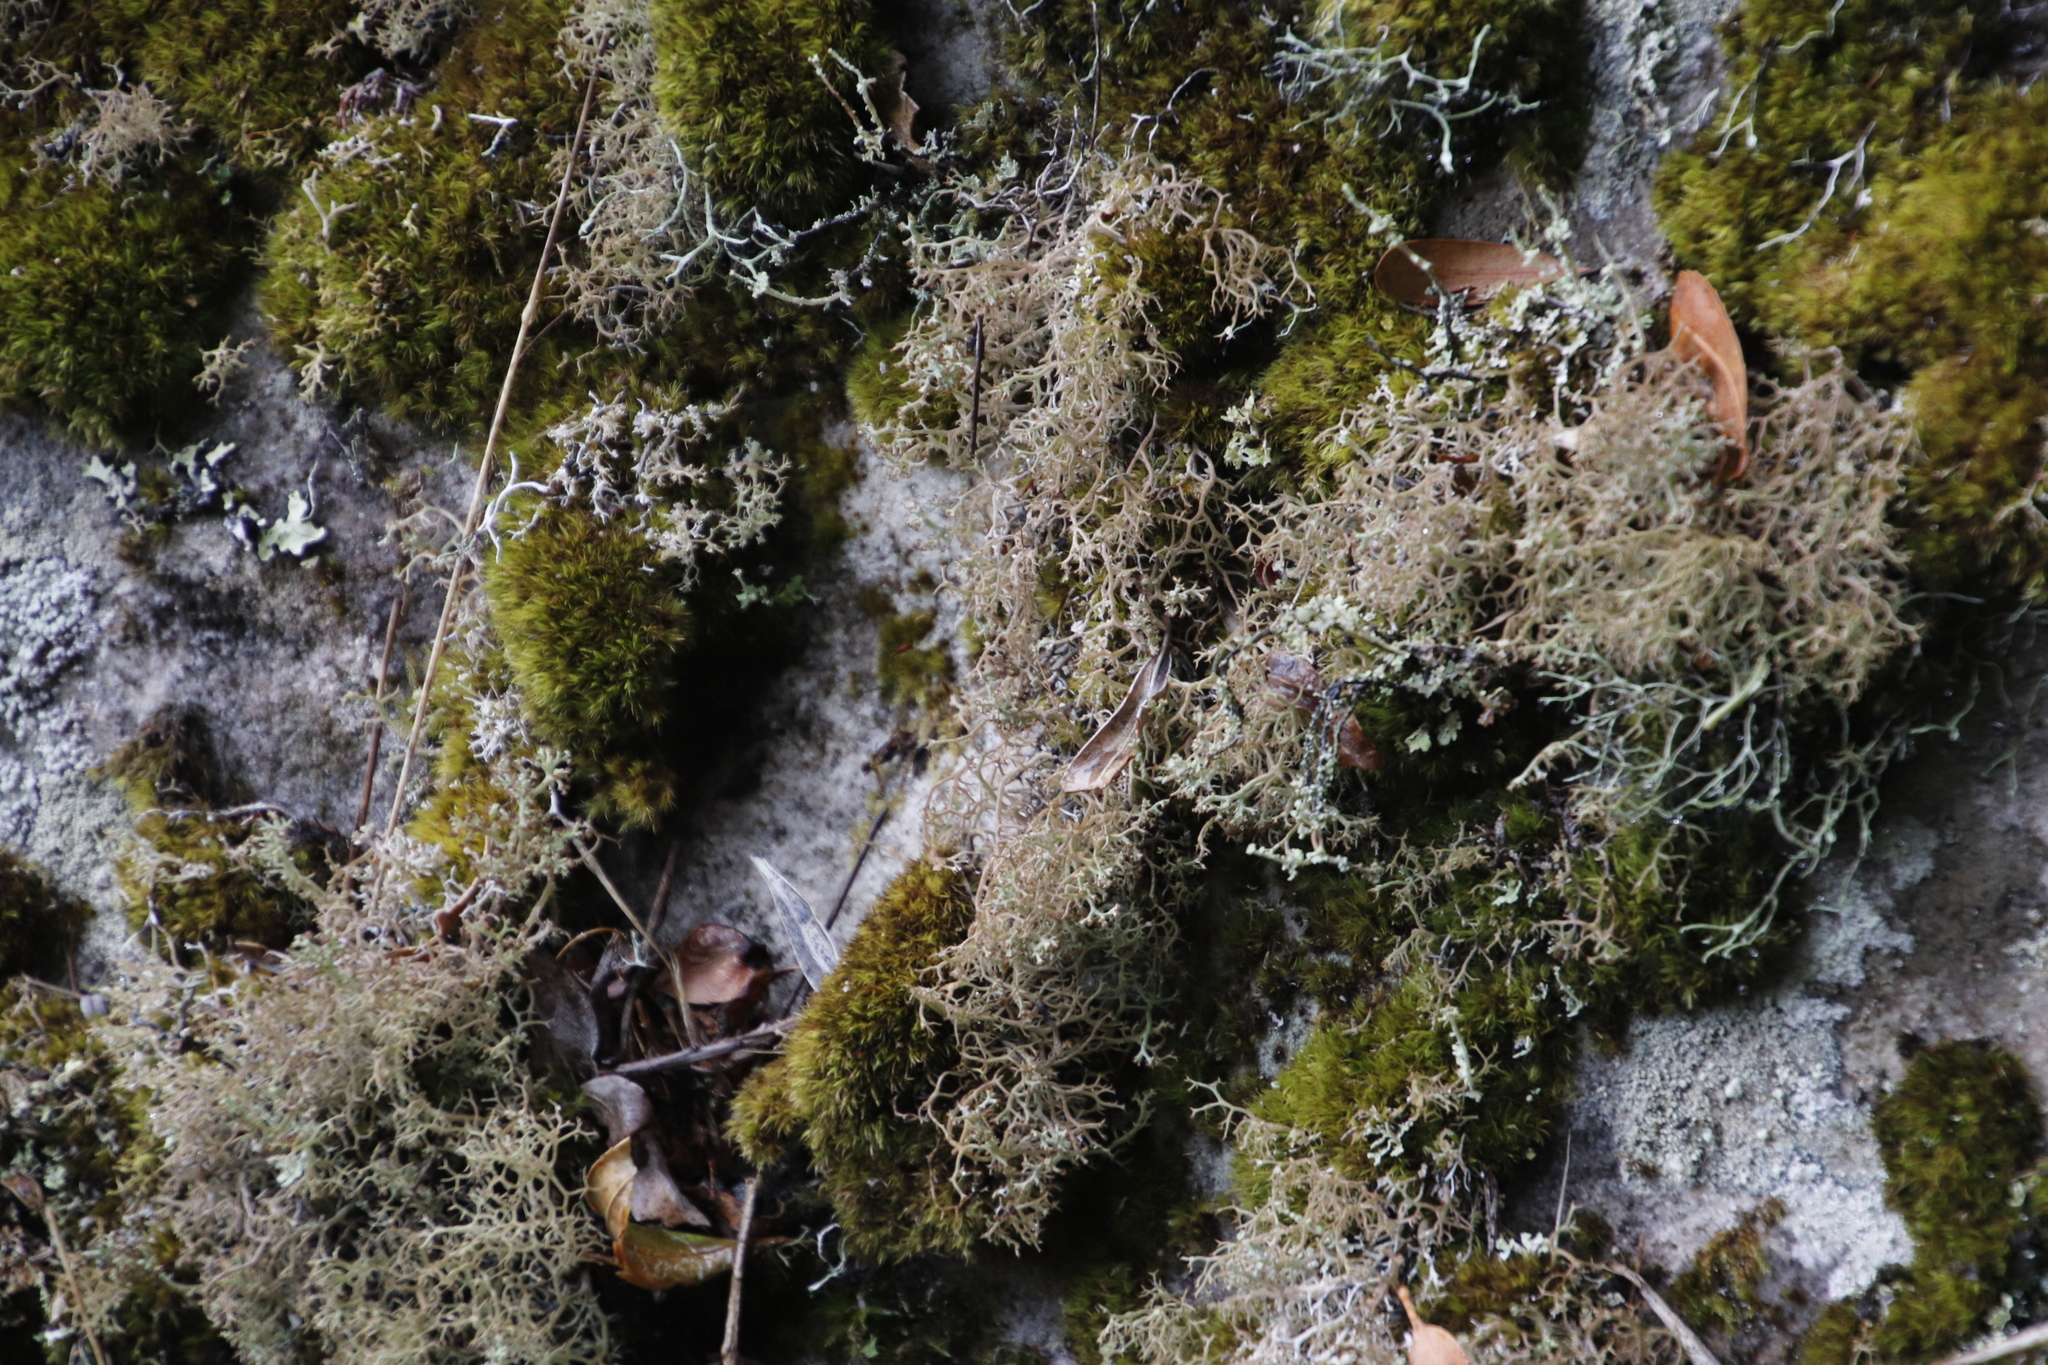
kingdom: Fungi
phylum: Ascomycota
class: Lecanoromycetes
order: Lecanorales
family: Cladoniaceae
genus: Cladonia
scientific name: Cladonia
